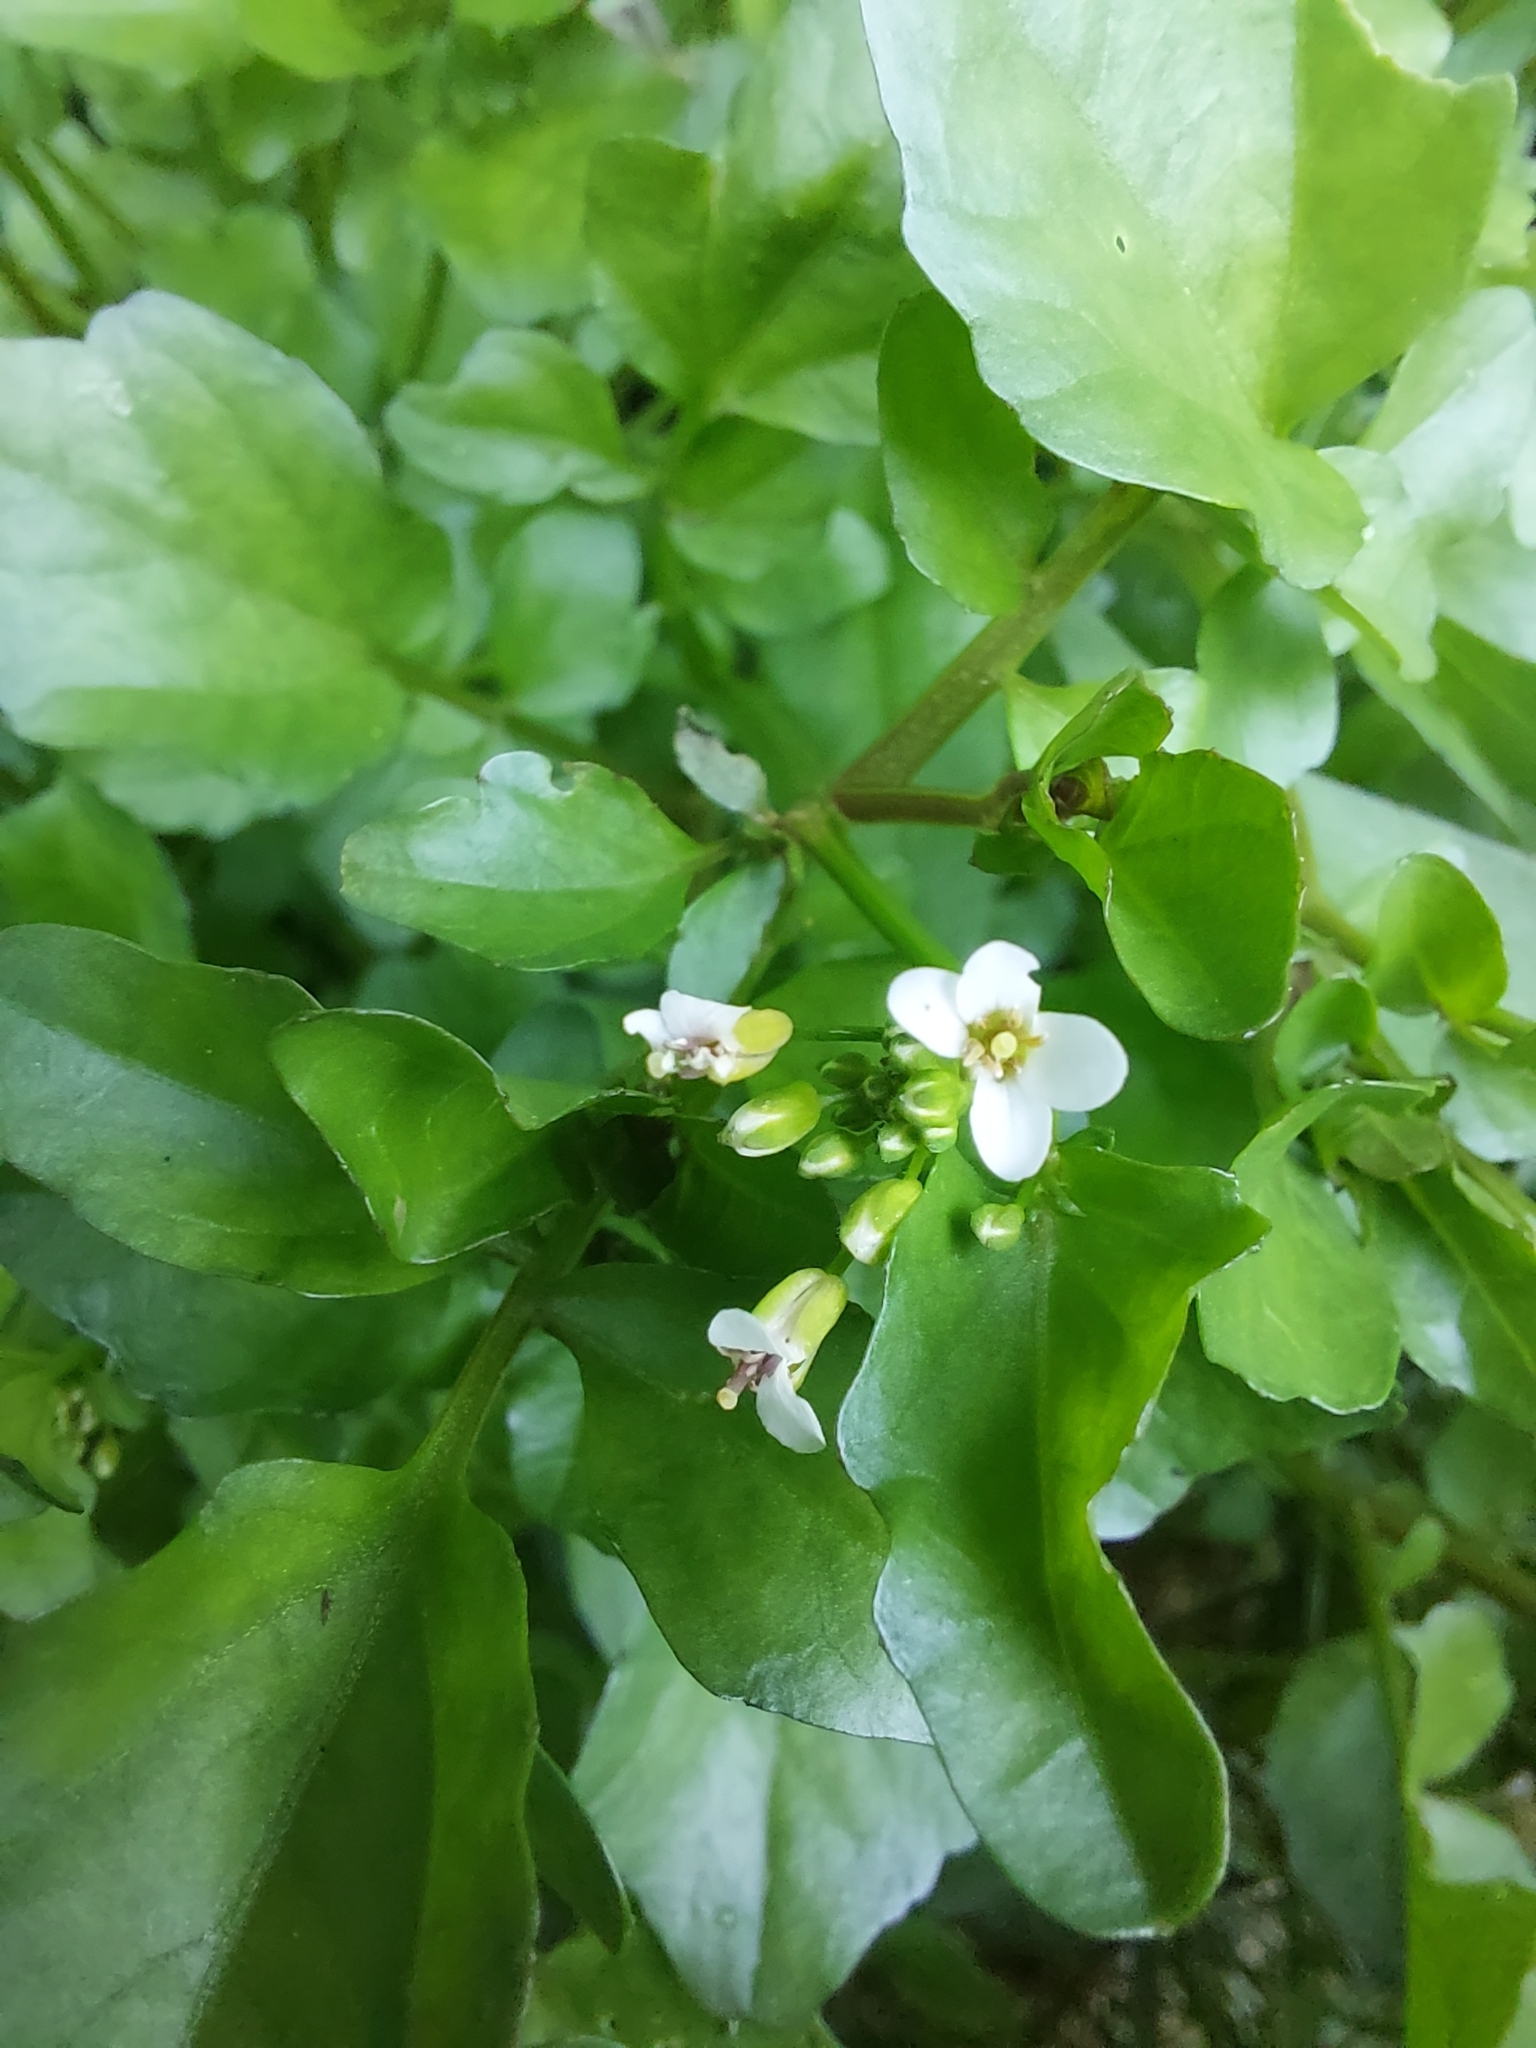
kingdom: Plantae
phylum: Tracheophyta
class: Magnoliopsida
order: Brassicales
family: Brassicaceae
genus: Nasturtium
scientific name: Nasturtium officinale
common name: Watercress
